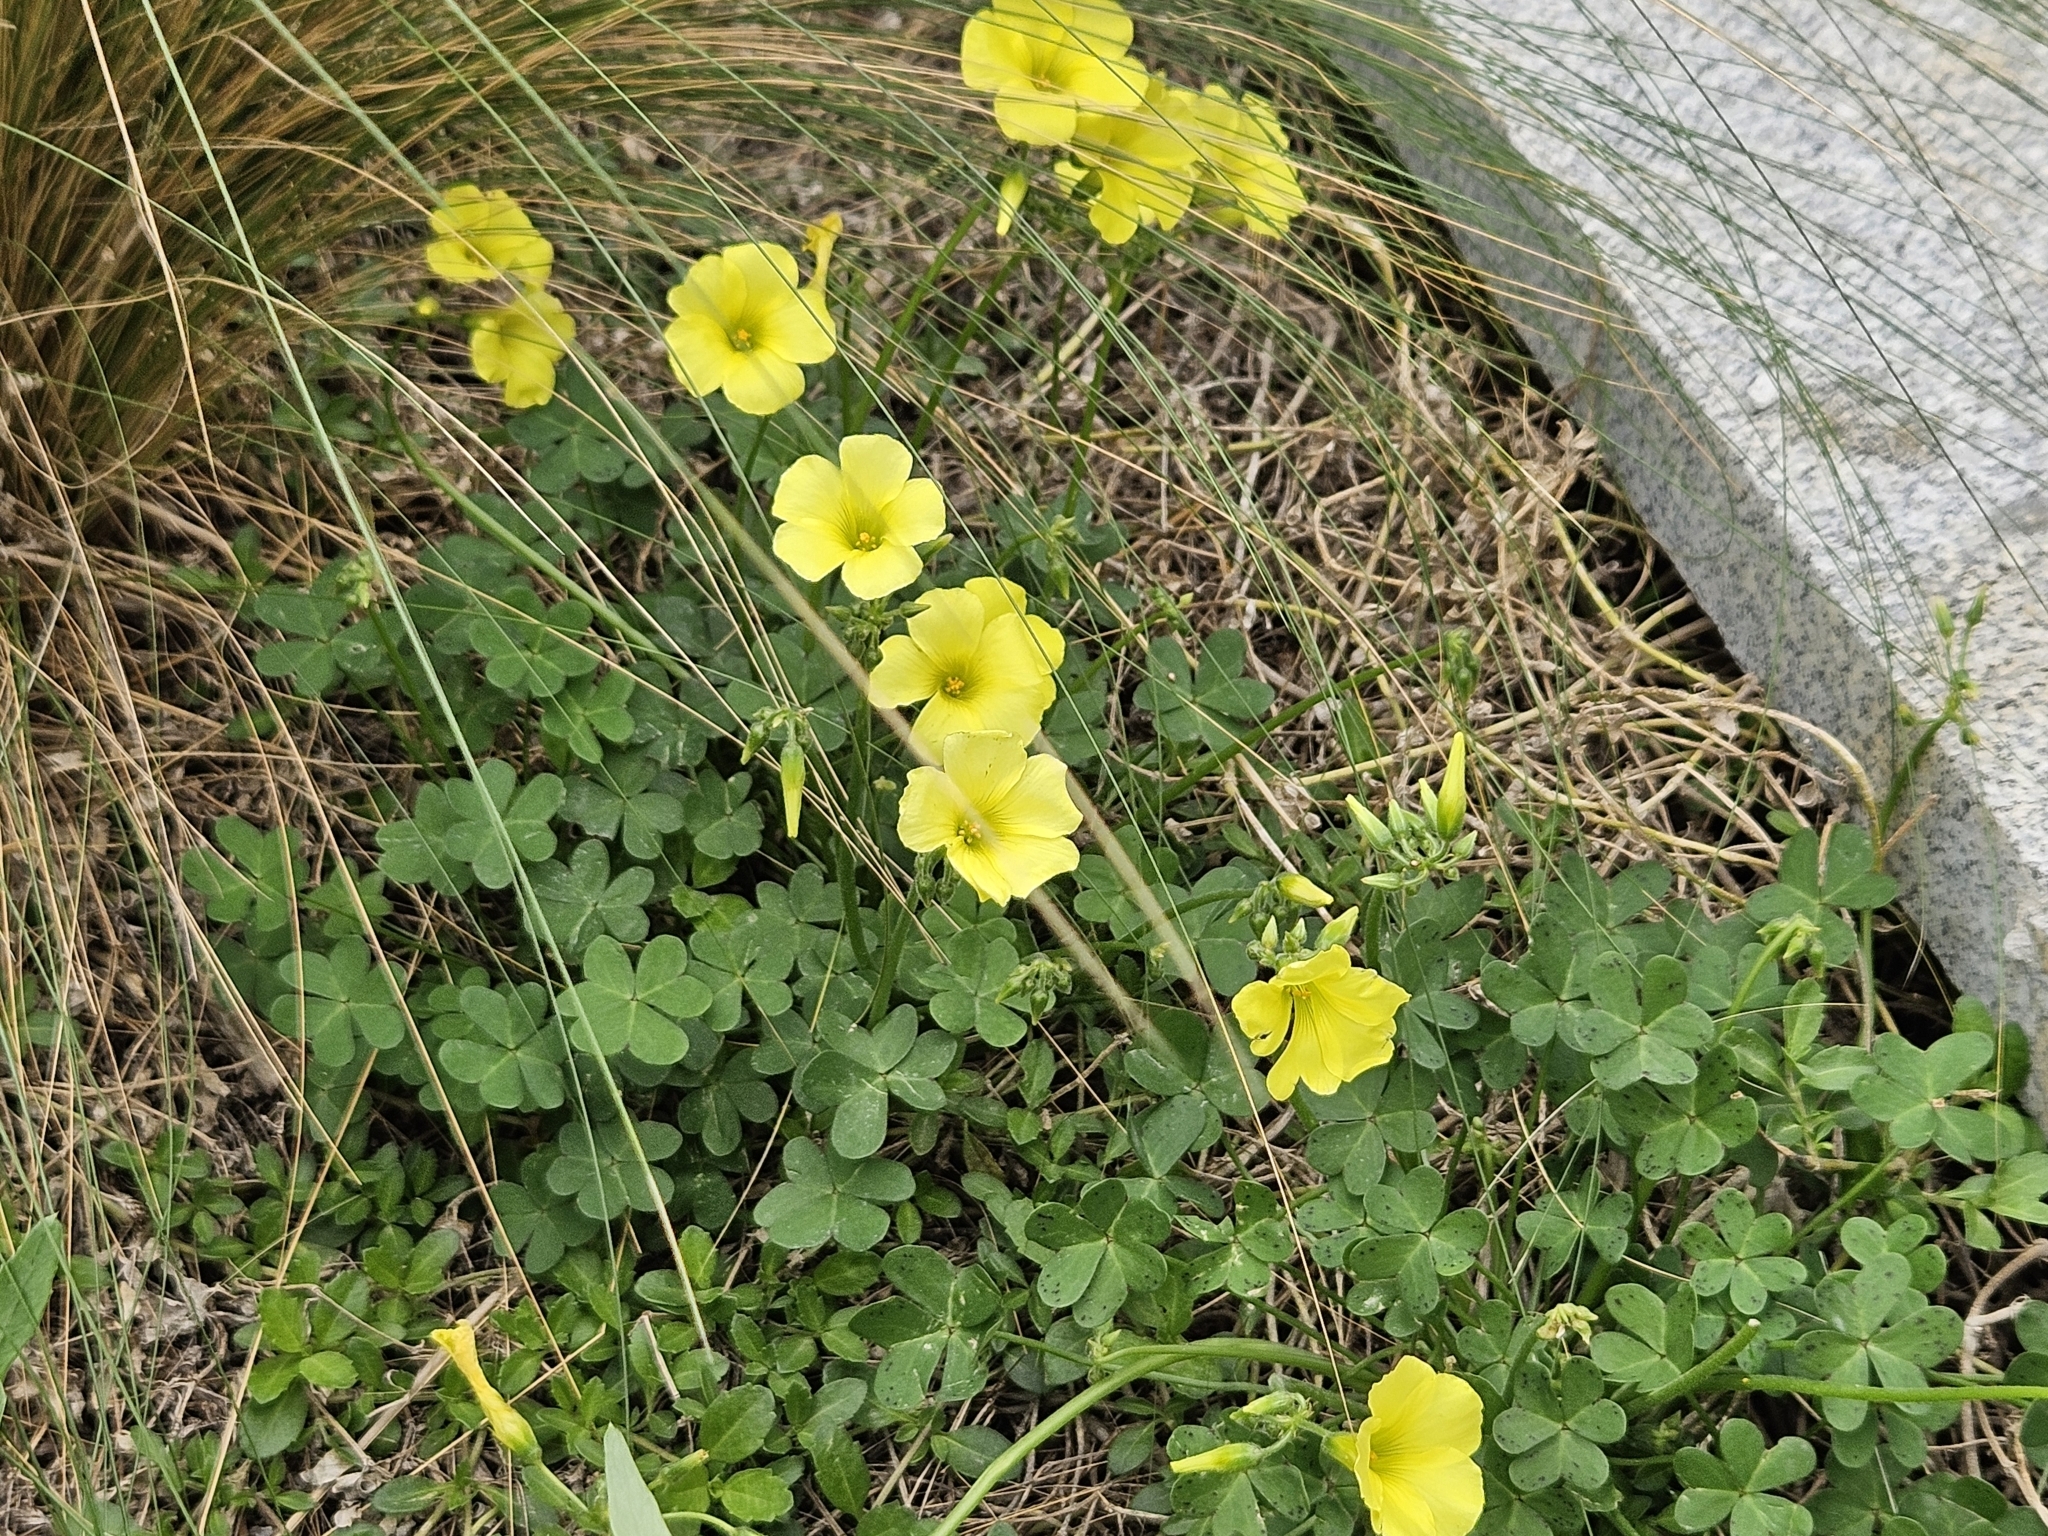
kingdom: Plantae
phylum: Tracheophyta
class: Magnoliopsida
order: Oxalidales
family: Oxalidaceae
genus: Oxalis
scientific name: Oxalis pes-caprae
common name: Bermuda-buttercup
